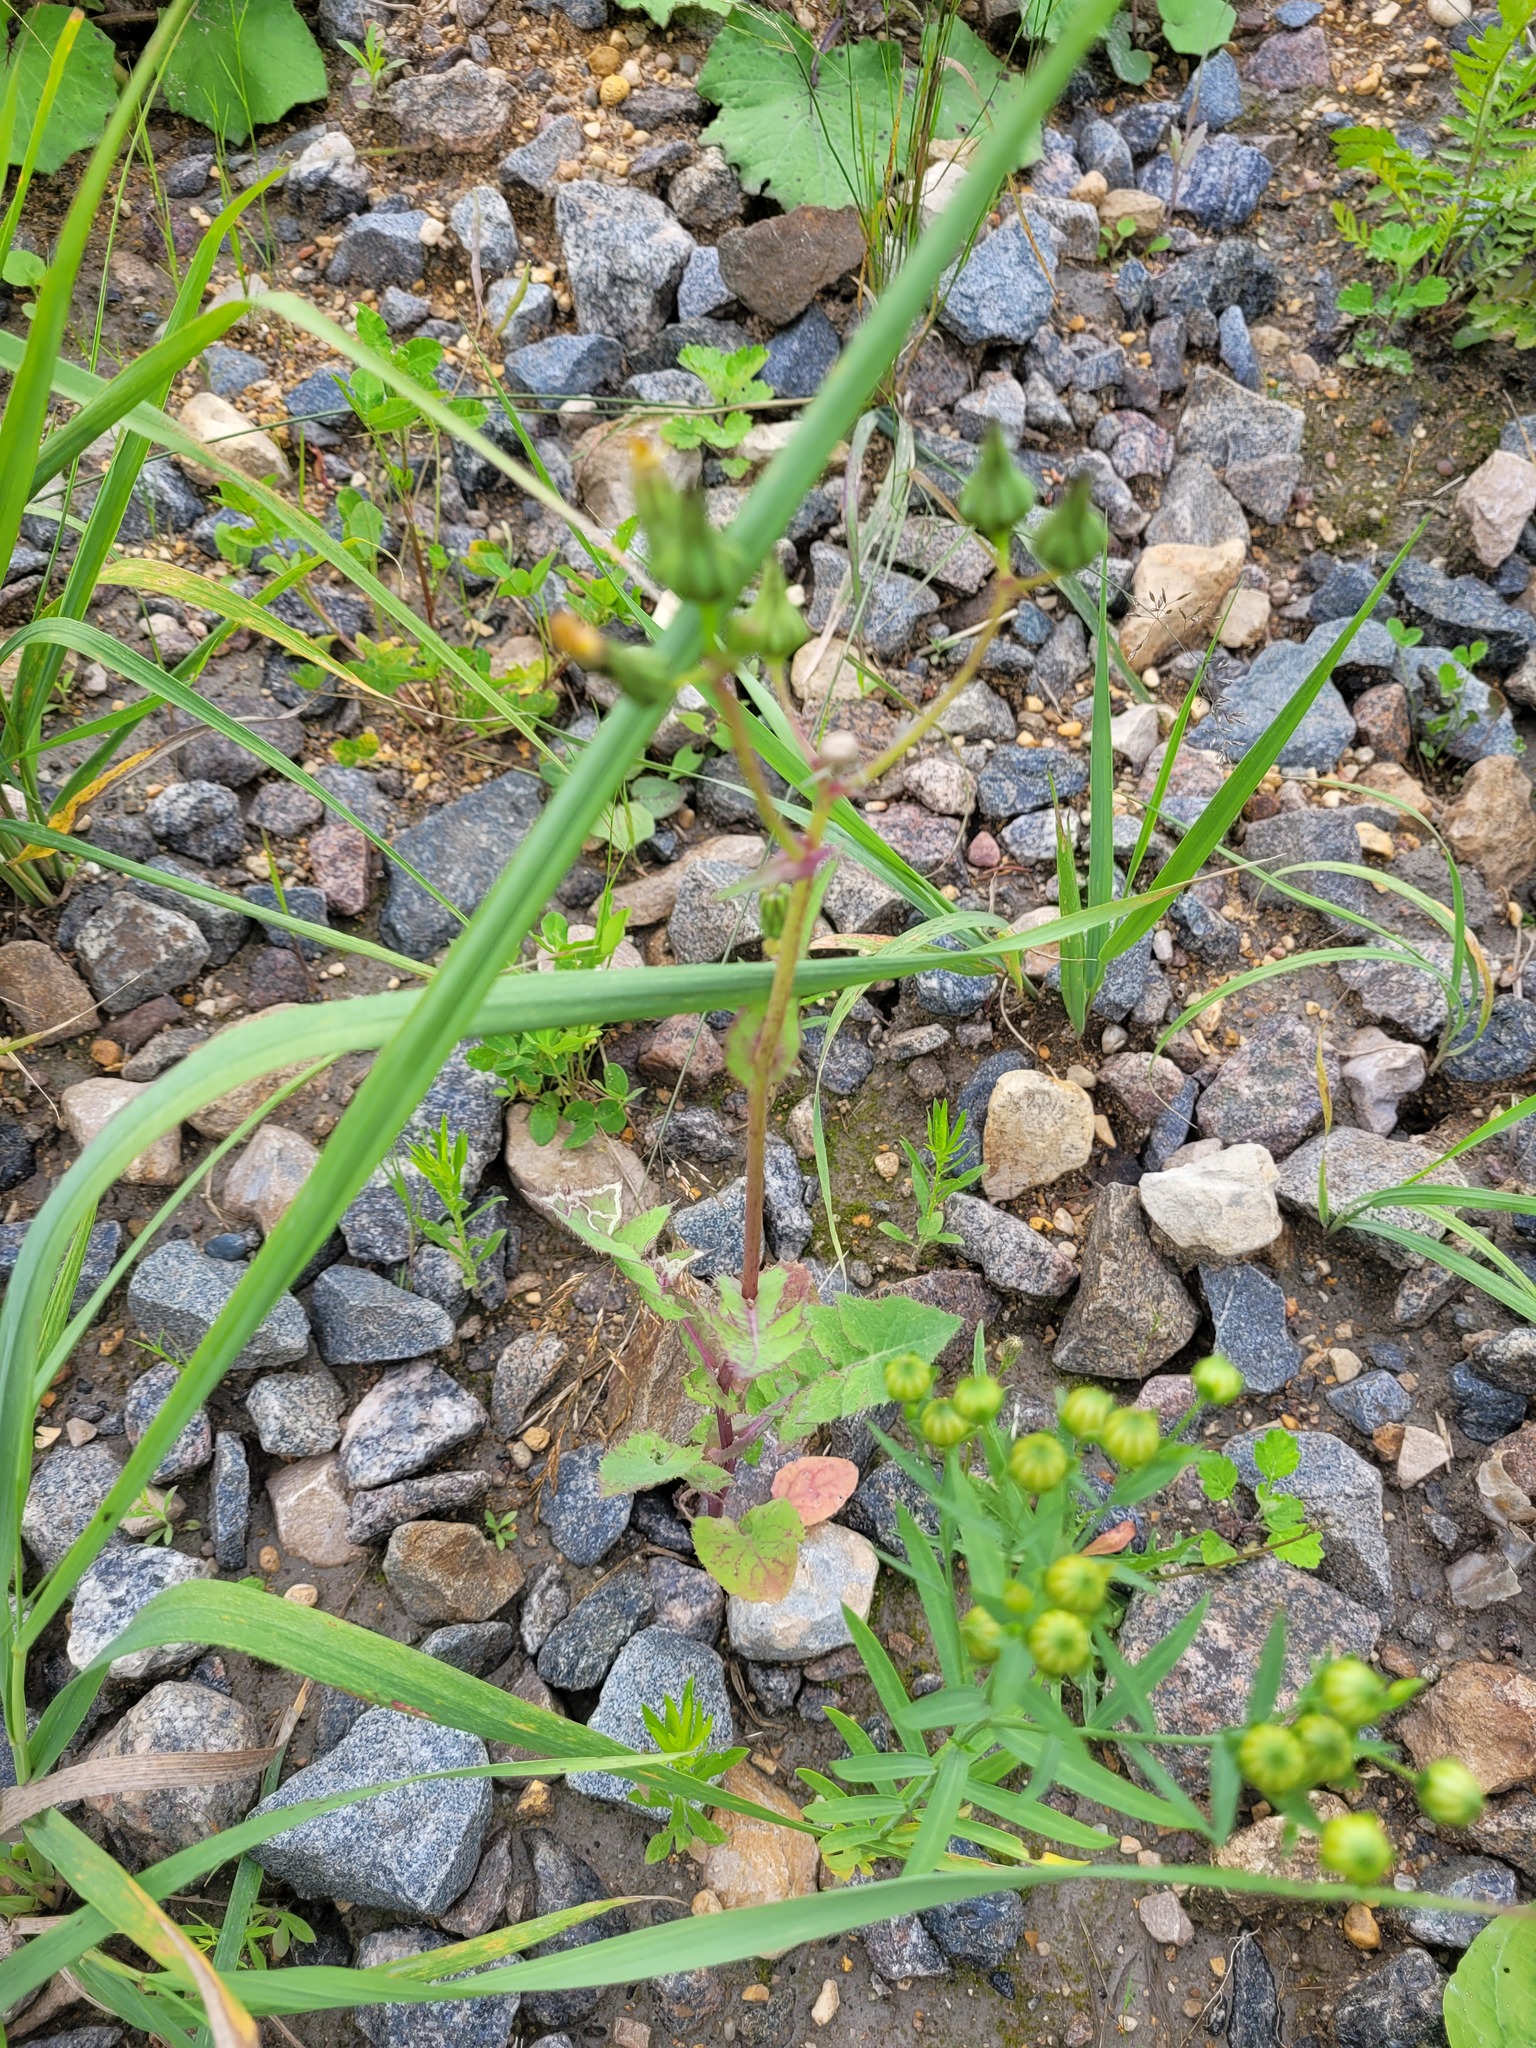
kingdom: Plantae
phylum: Tracheophyta
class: Magnoliopsida
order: Asterales
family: Asteraceae
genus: Sonchus
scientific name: Sonchus oleraceus
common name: Common sowthistle
